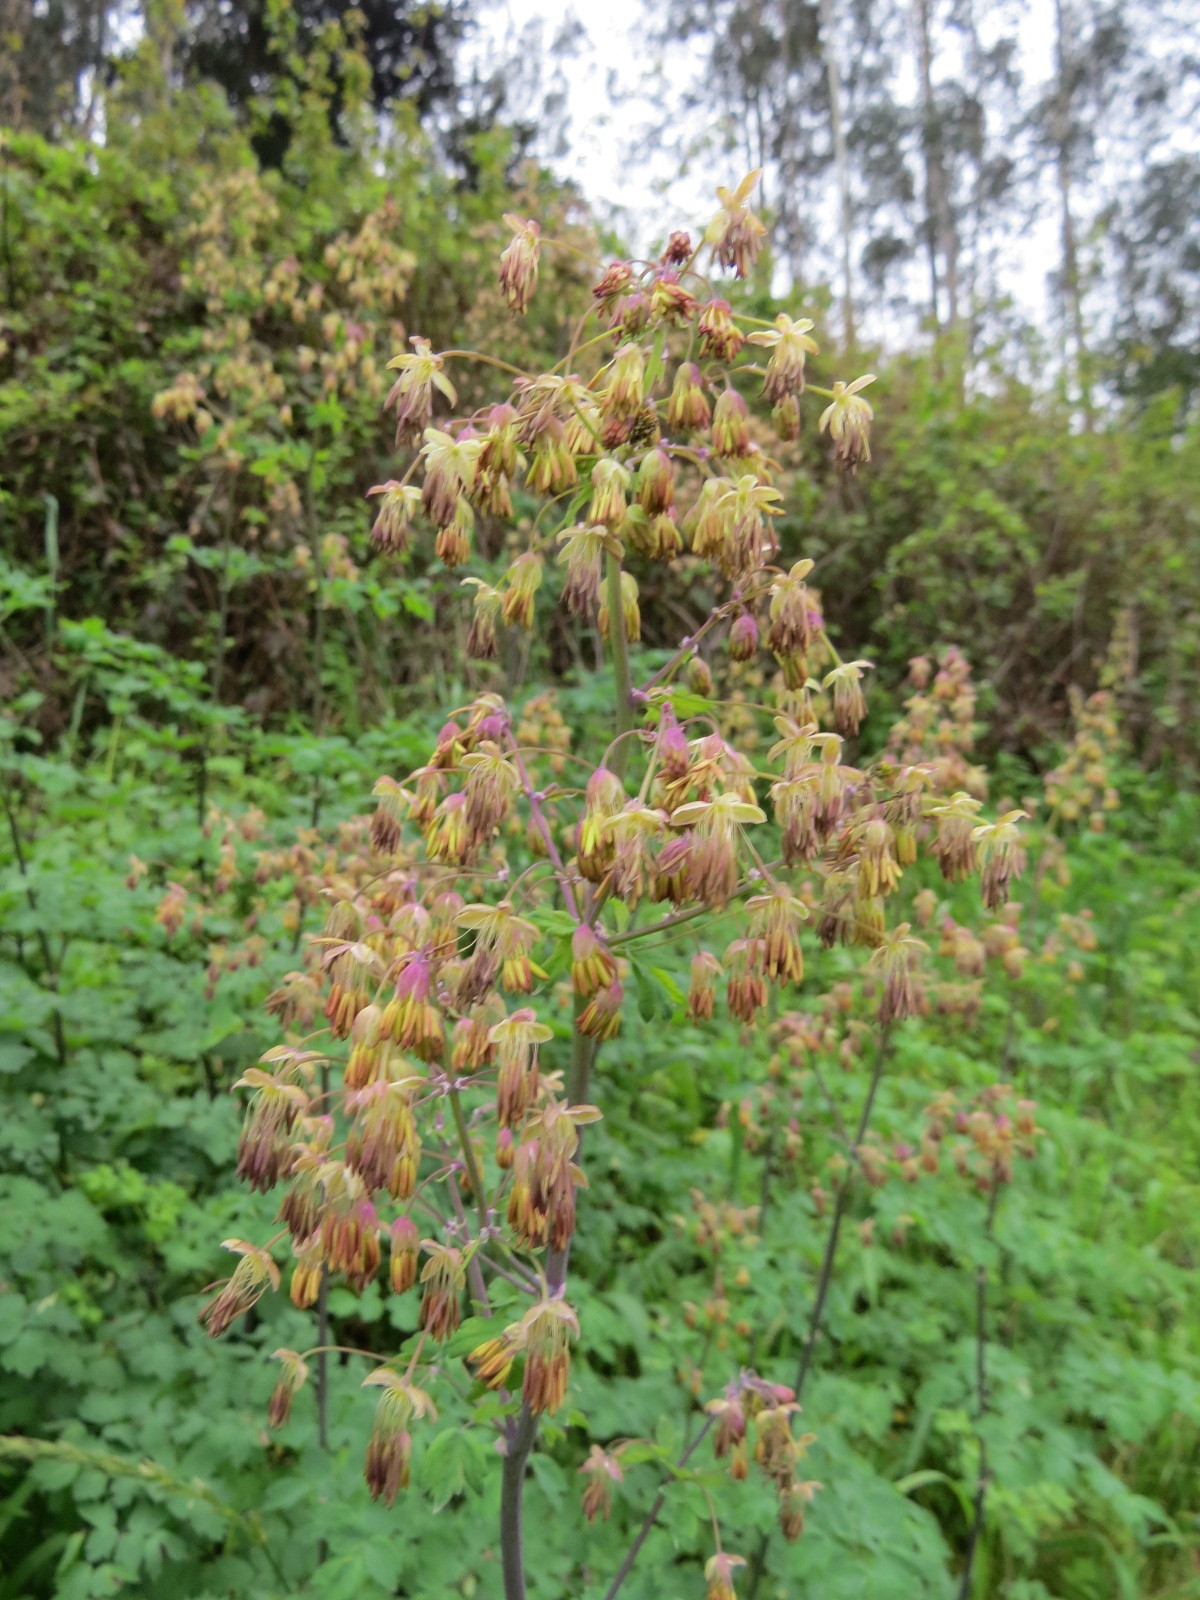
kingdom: Plantae
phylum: Tracheophyta
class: Magnoliopsida
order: Ranunculales
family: Ranunculaceae
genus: Thalictrum
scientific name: Thalictrum fendleri
